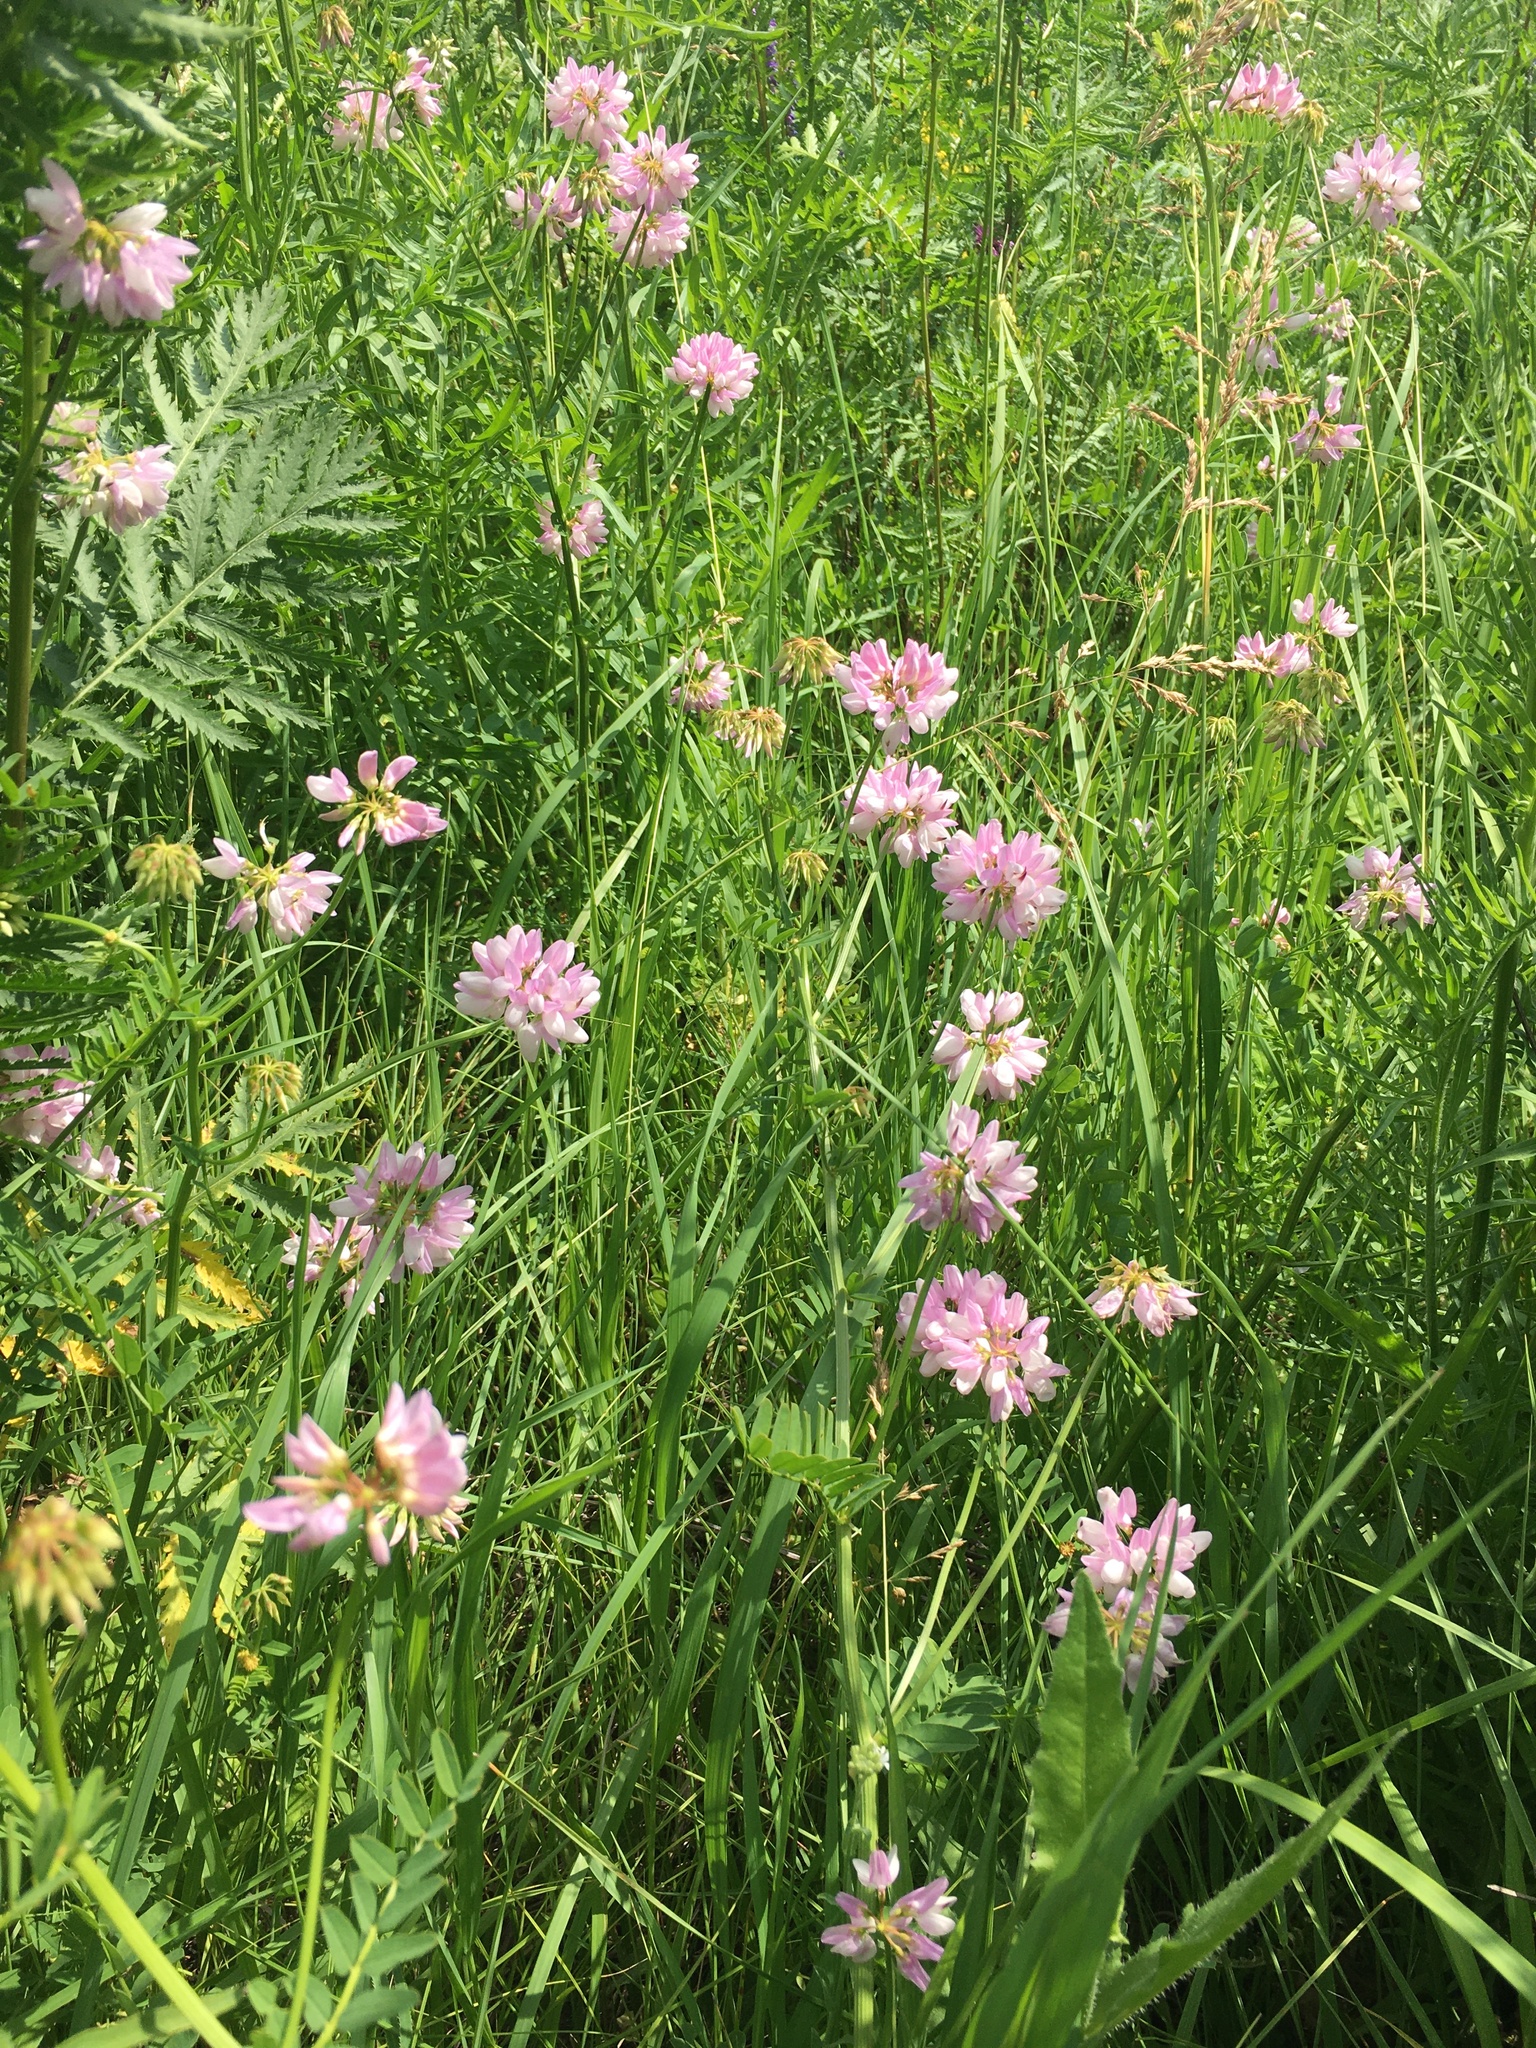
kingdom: Plantae
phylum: Tracheophyta
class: Magnoliopsida
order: Fabales
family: Fabaceae
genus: Coronilla
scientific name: Coronilla varia
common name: Crownvetch
